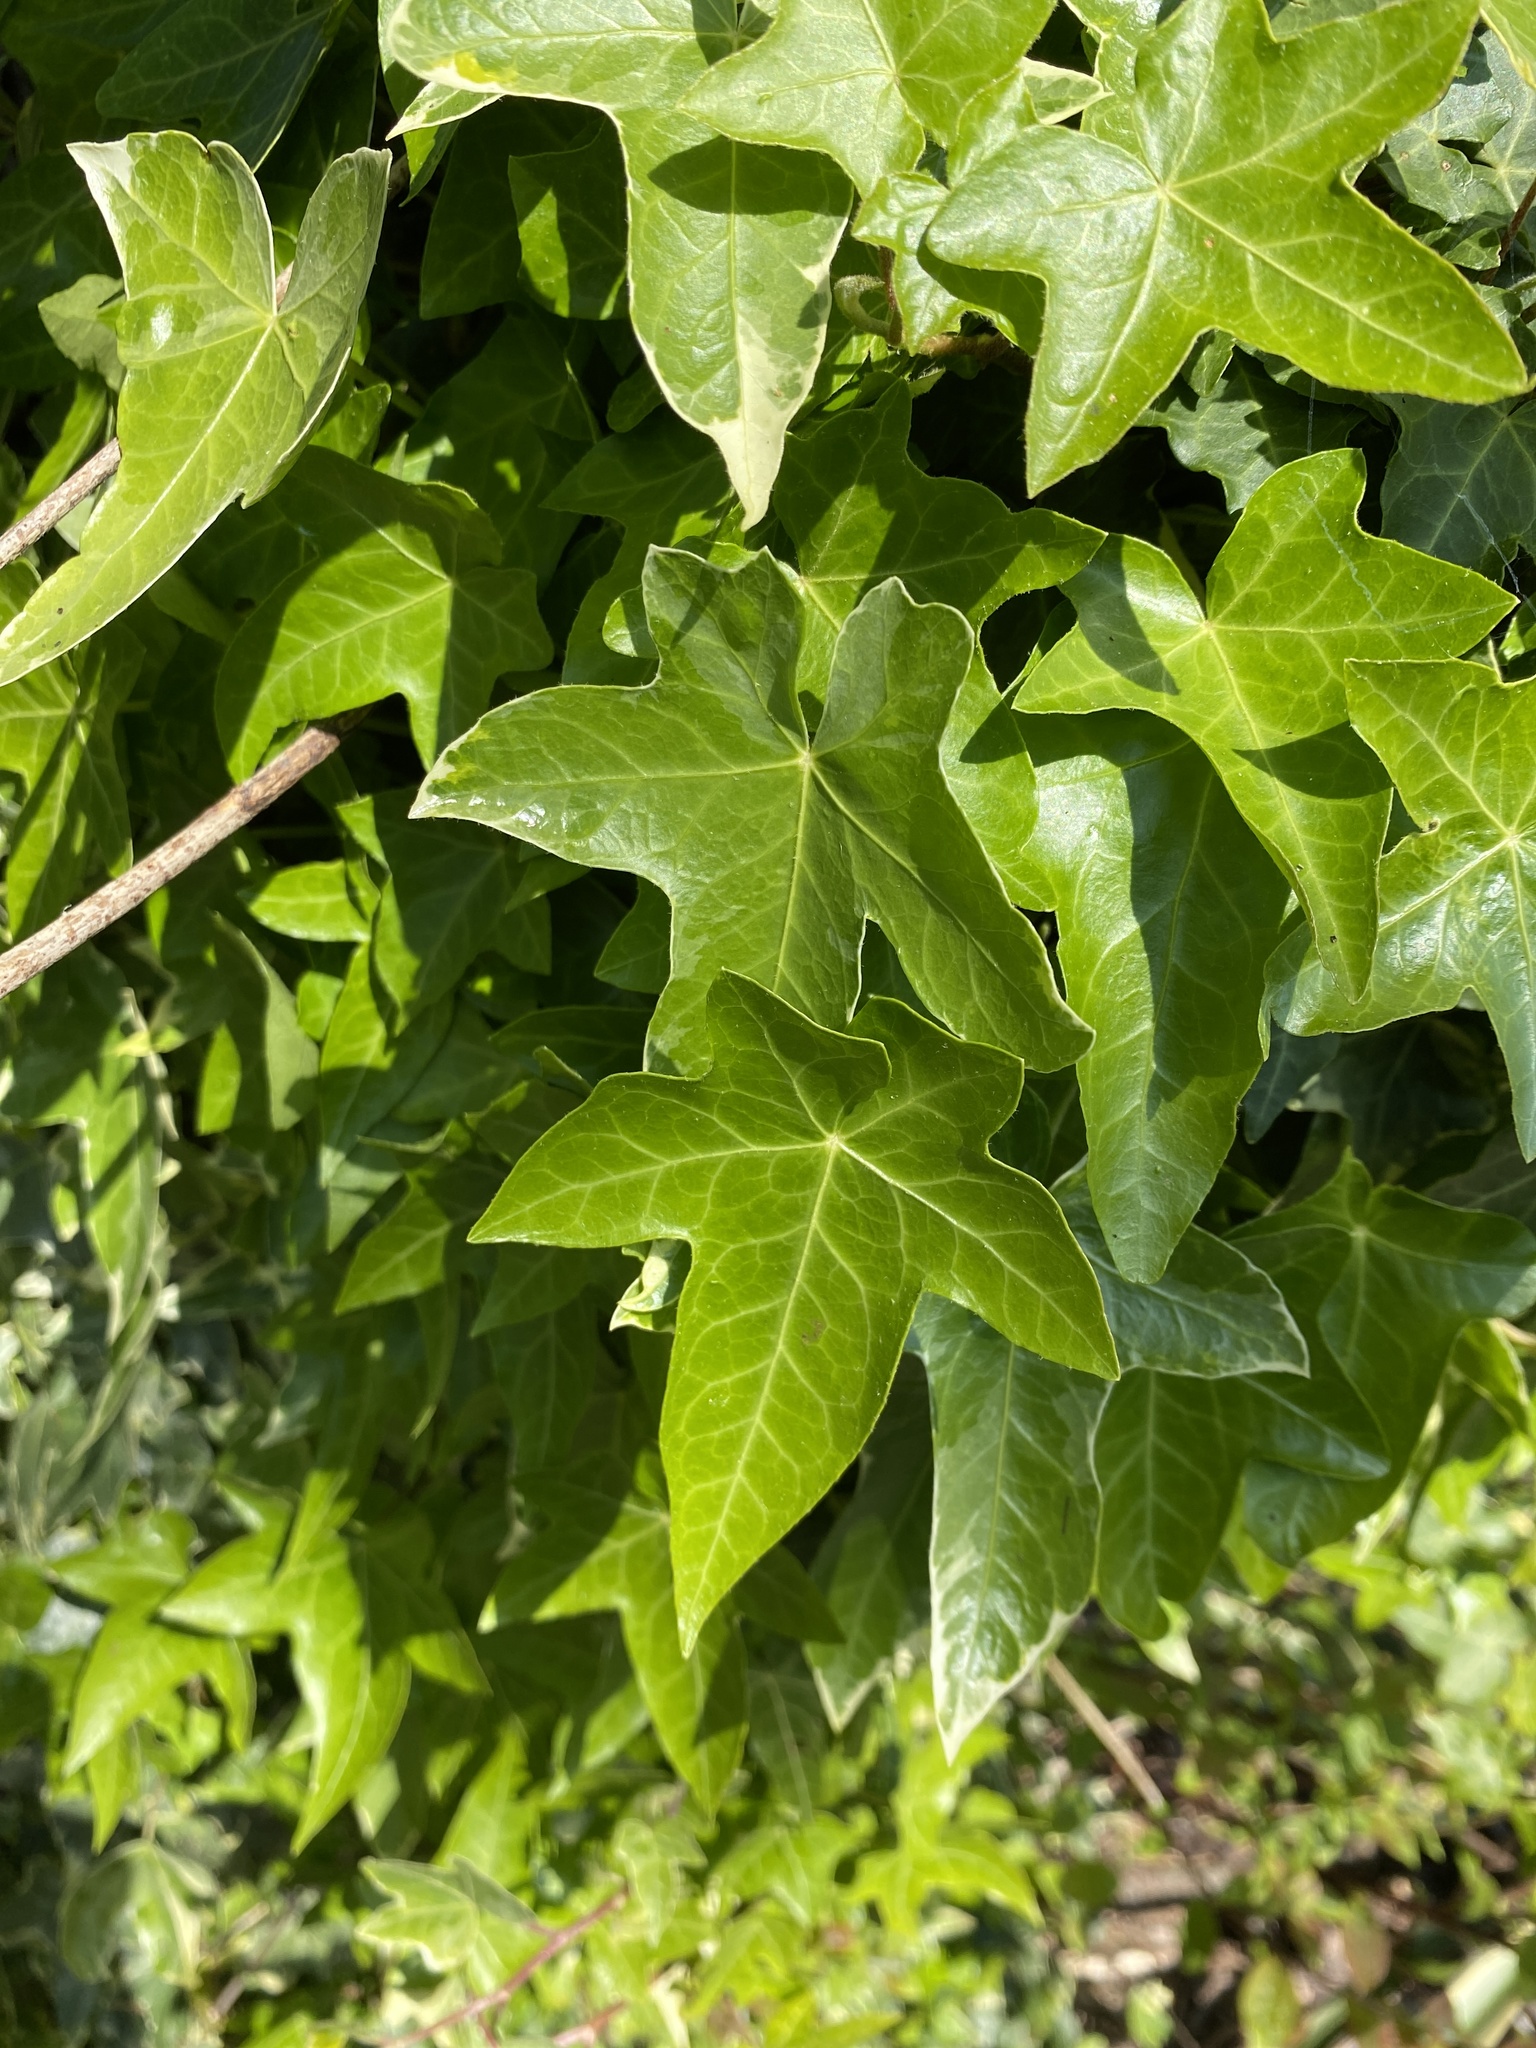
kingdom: Plantae
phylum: Tracheophyta
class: Magnoliopsida
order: Apiales
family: Araliaceae
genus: Hedera
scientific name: Hedera helix
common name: Ivy
